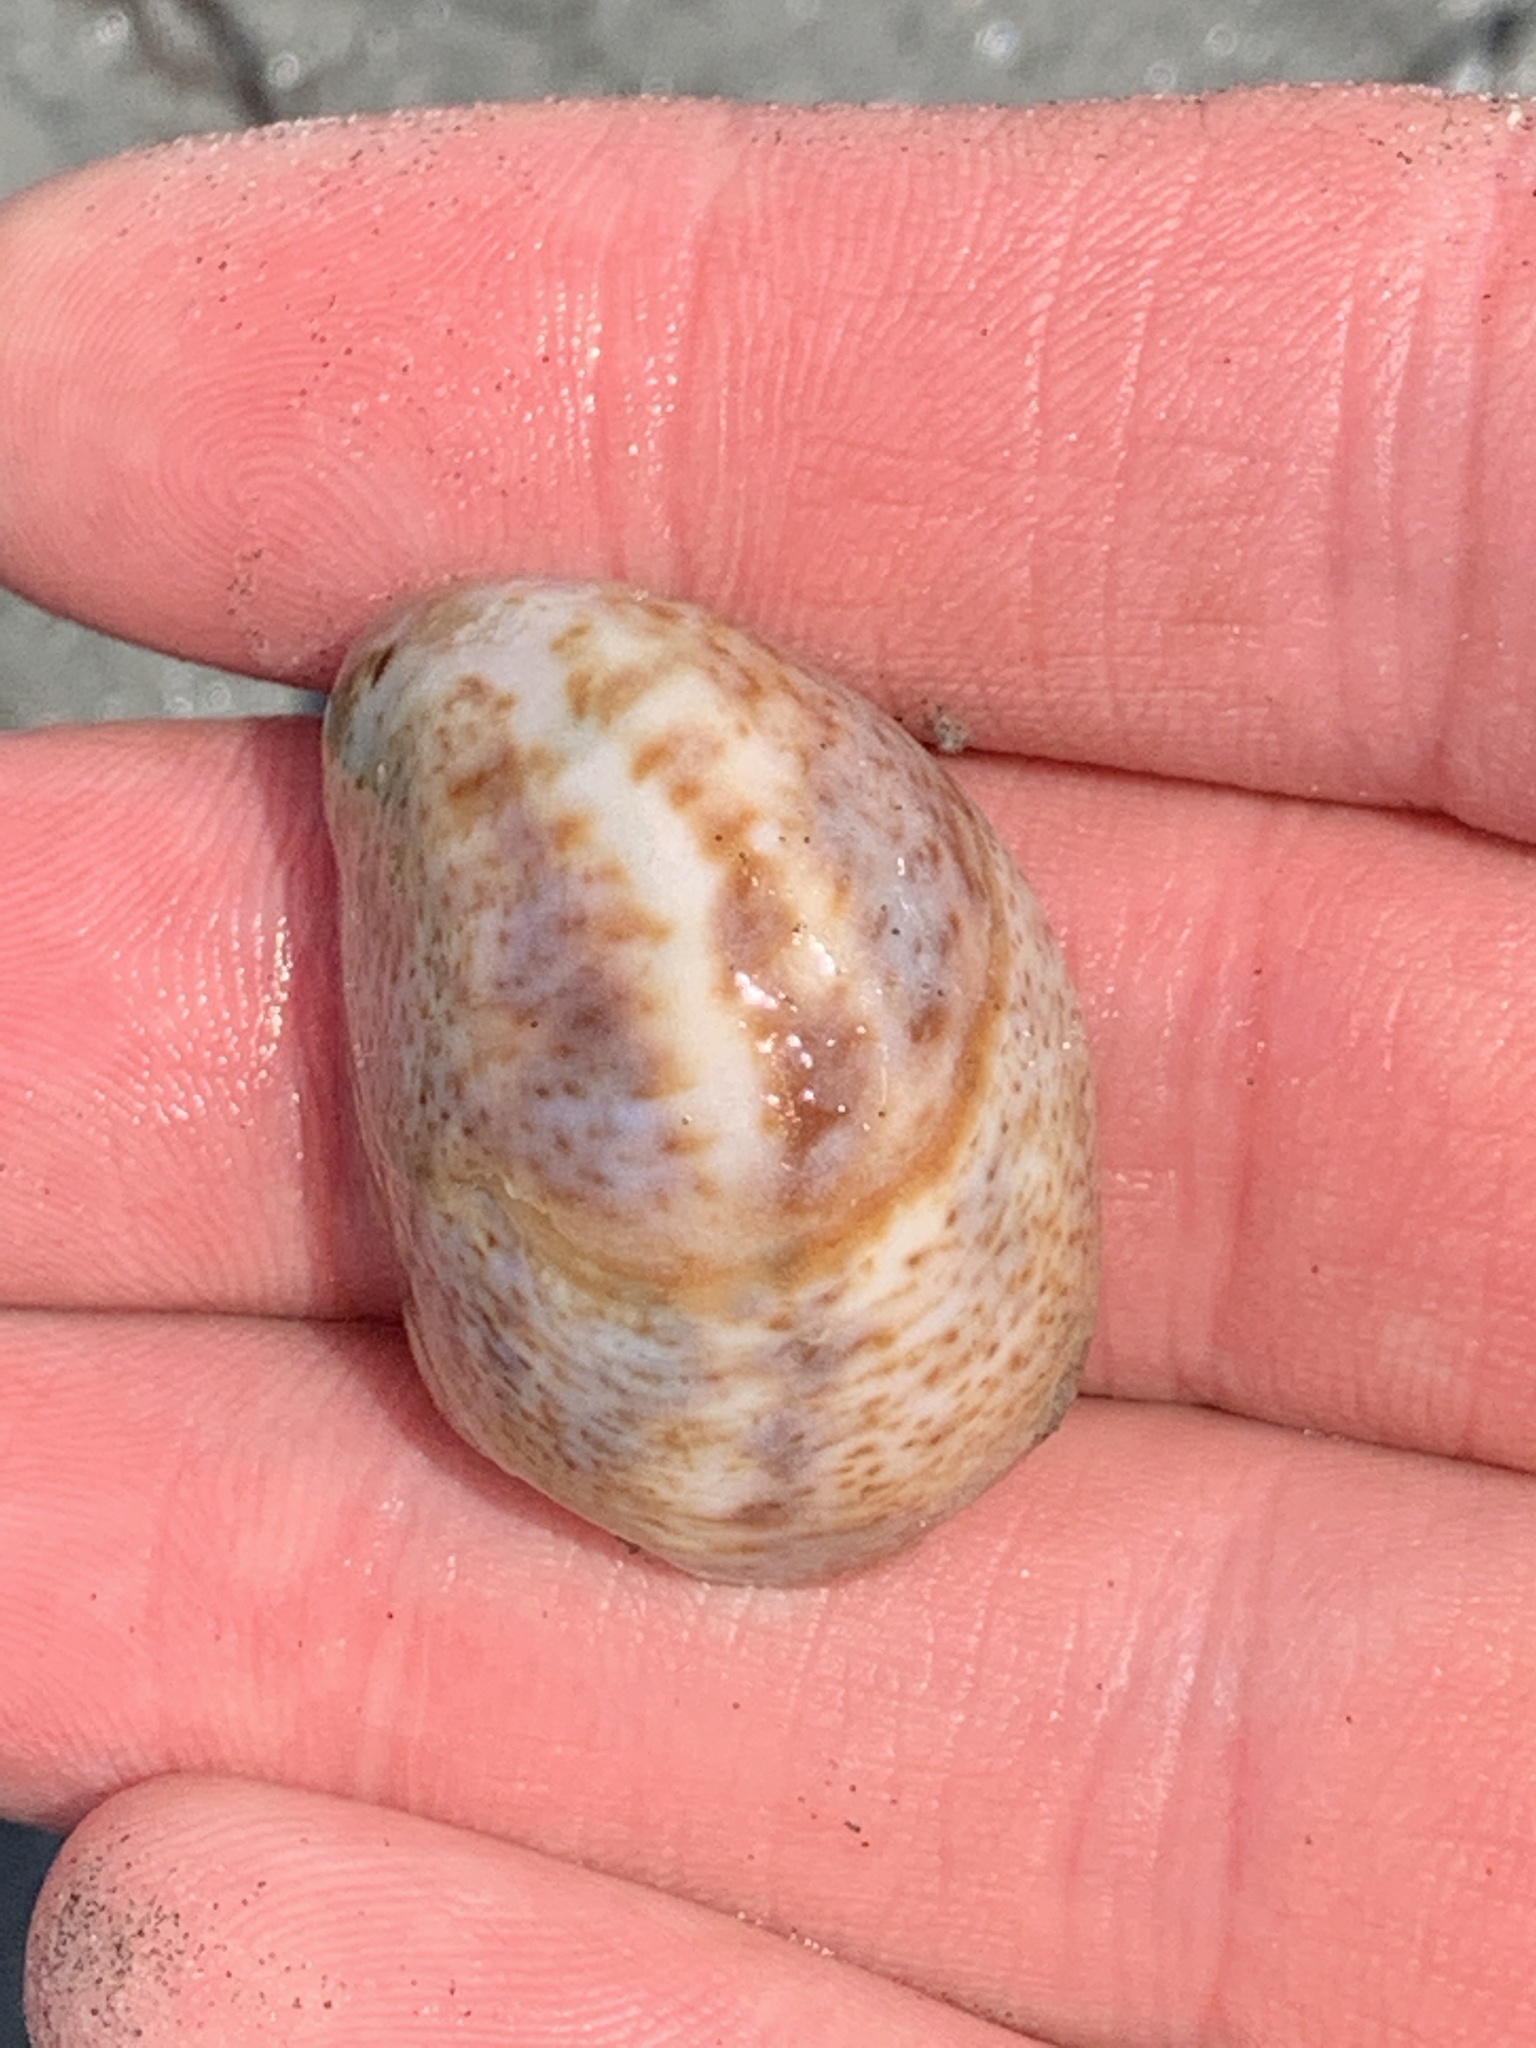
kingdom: Animalia
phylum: Mollusca
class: Gastropoda
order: Littorinimorpha
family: Calyptraeidae
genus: Crepidula
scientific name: Crepidula fornicata
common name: Slipper limpet
